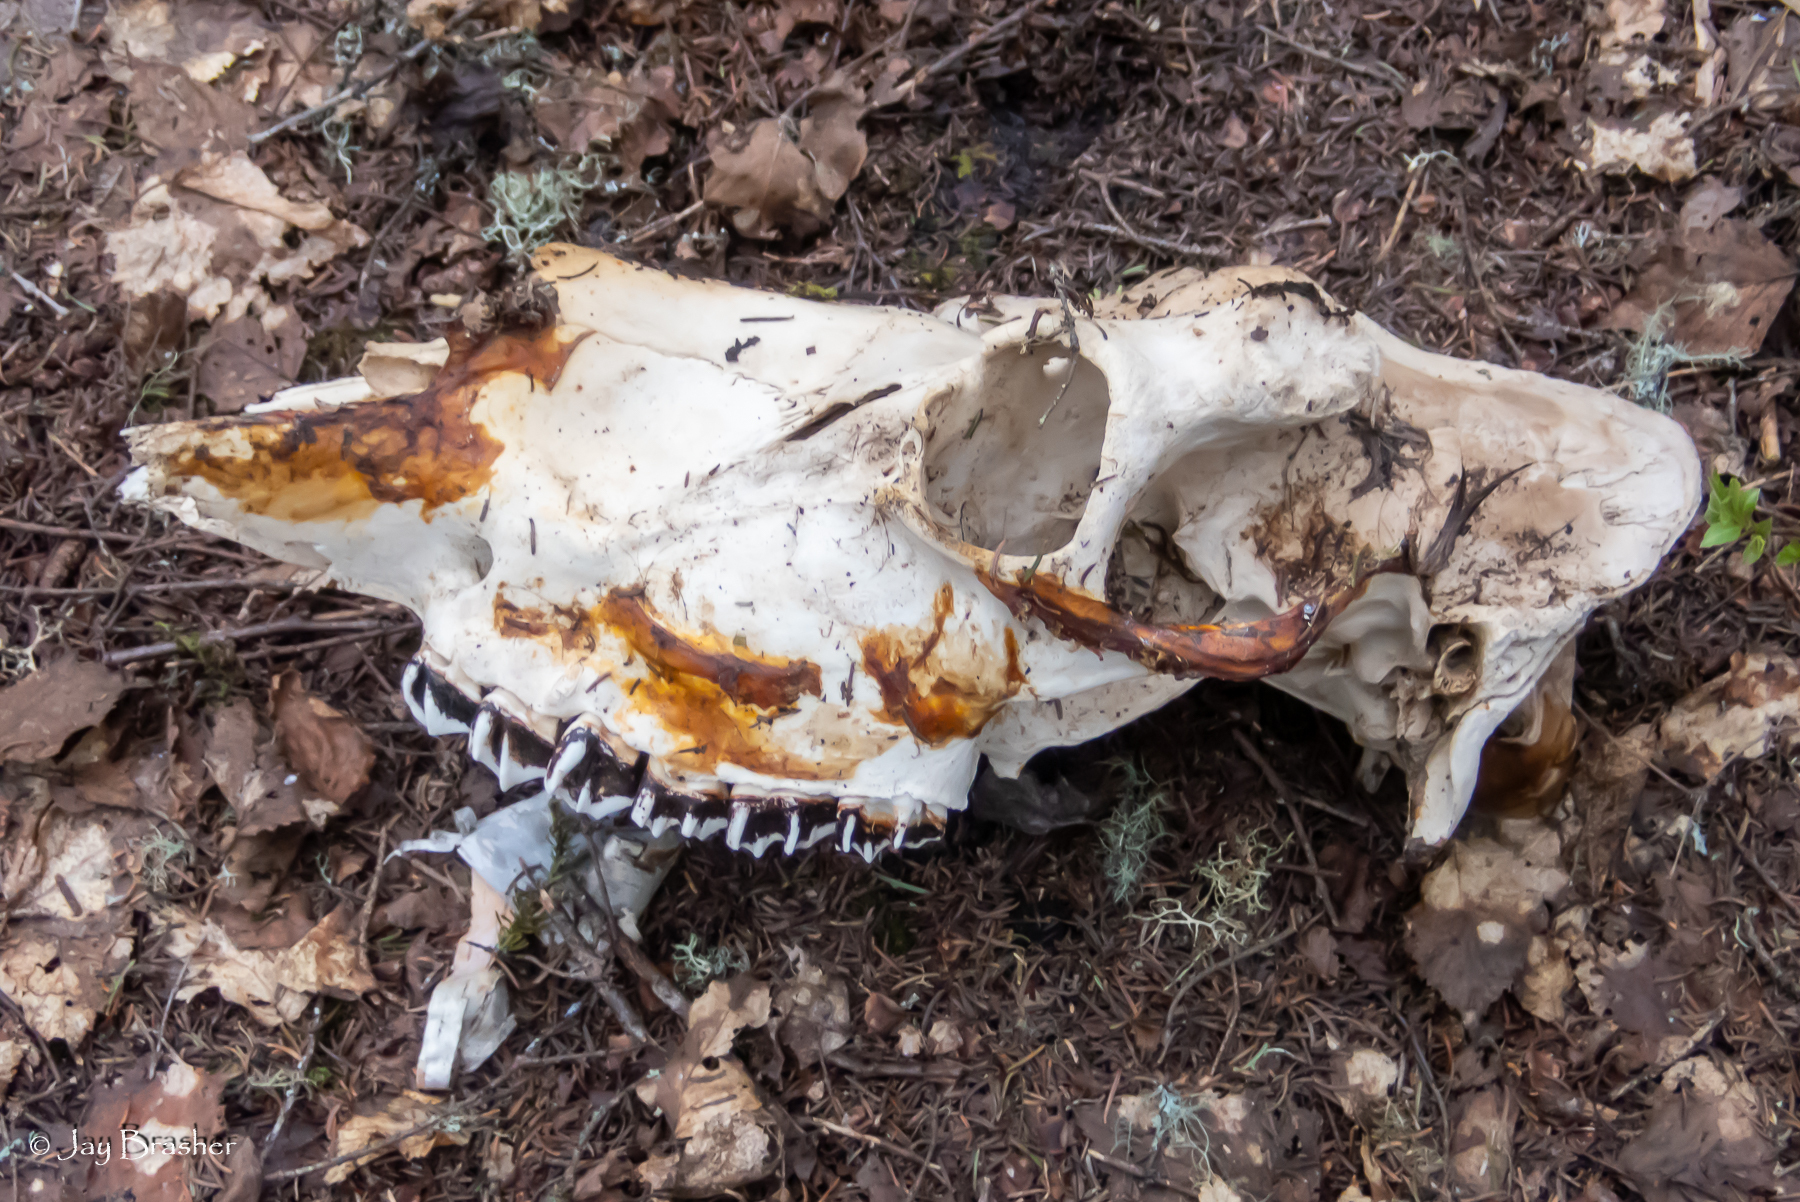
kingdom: Animalia
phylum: Chordata
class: Mammalia
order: Artiodactyla
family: Cervidae
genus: Alces
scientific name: Alces americanus
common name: Moose
